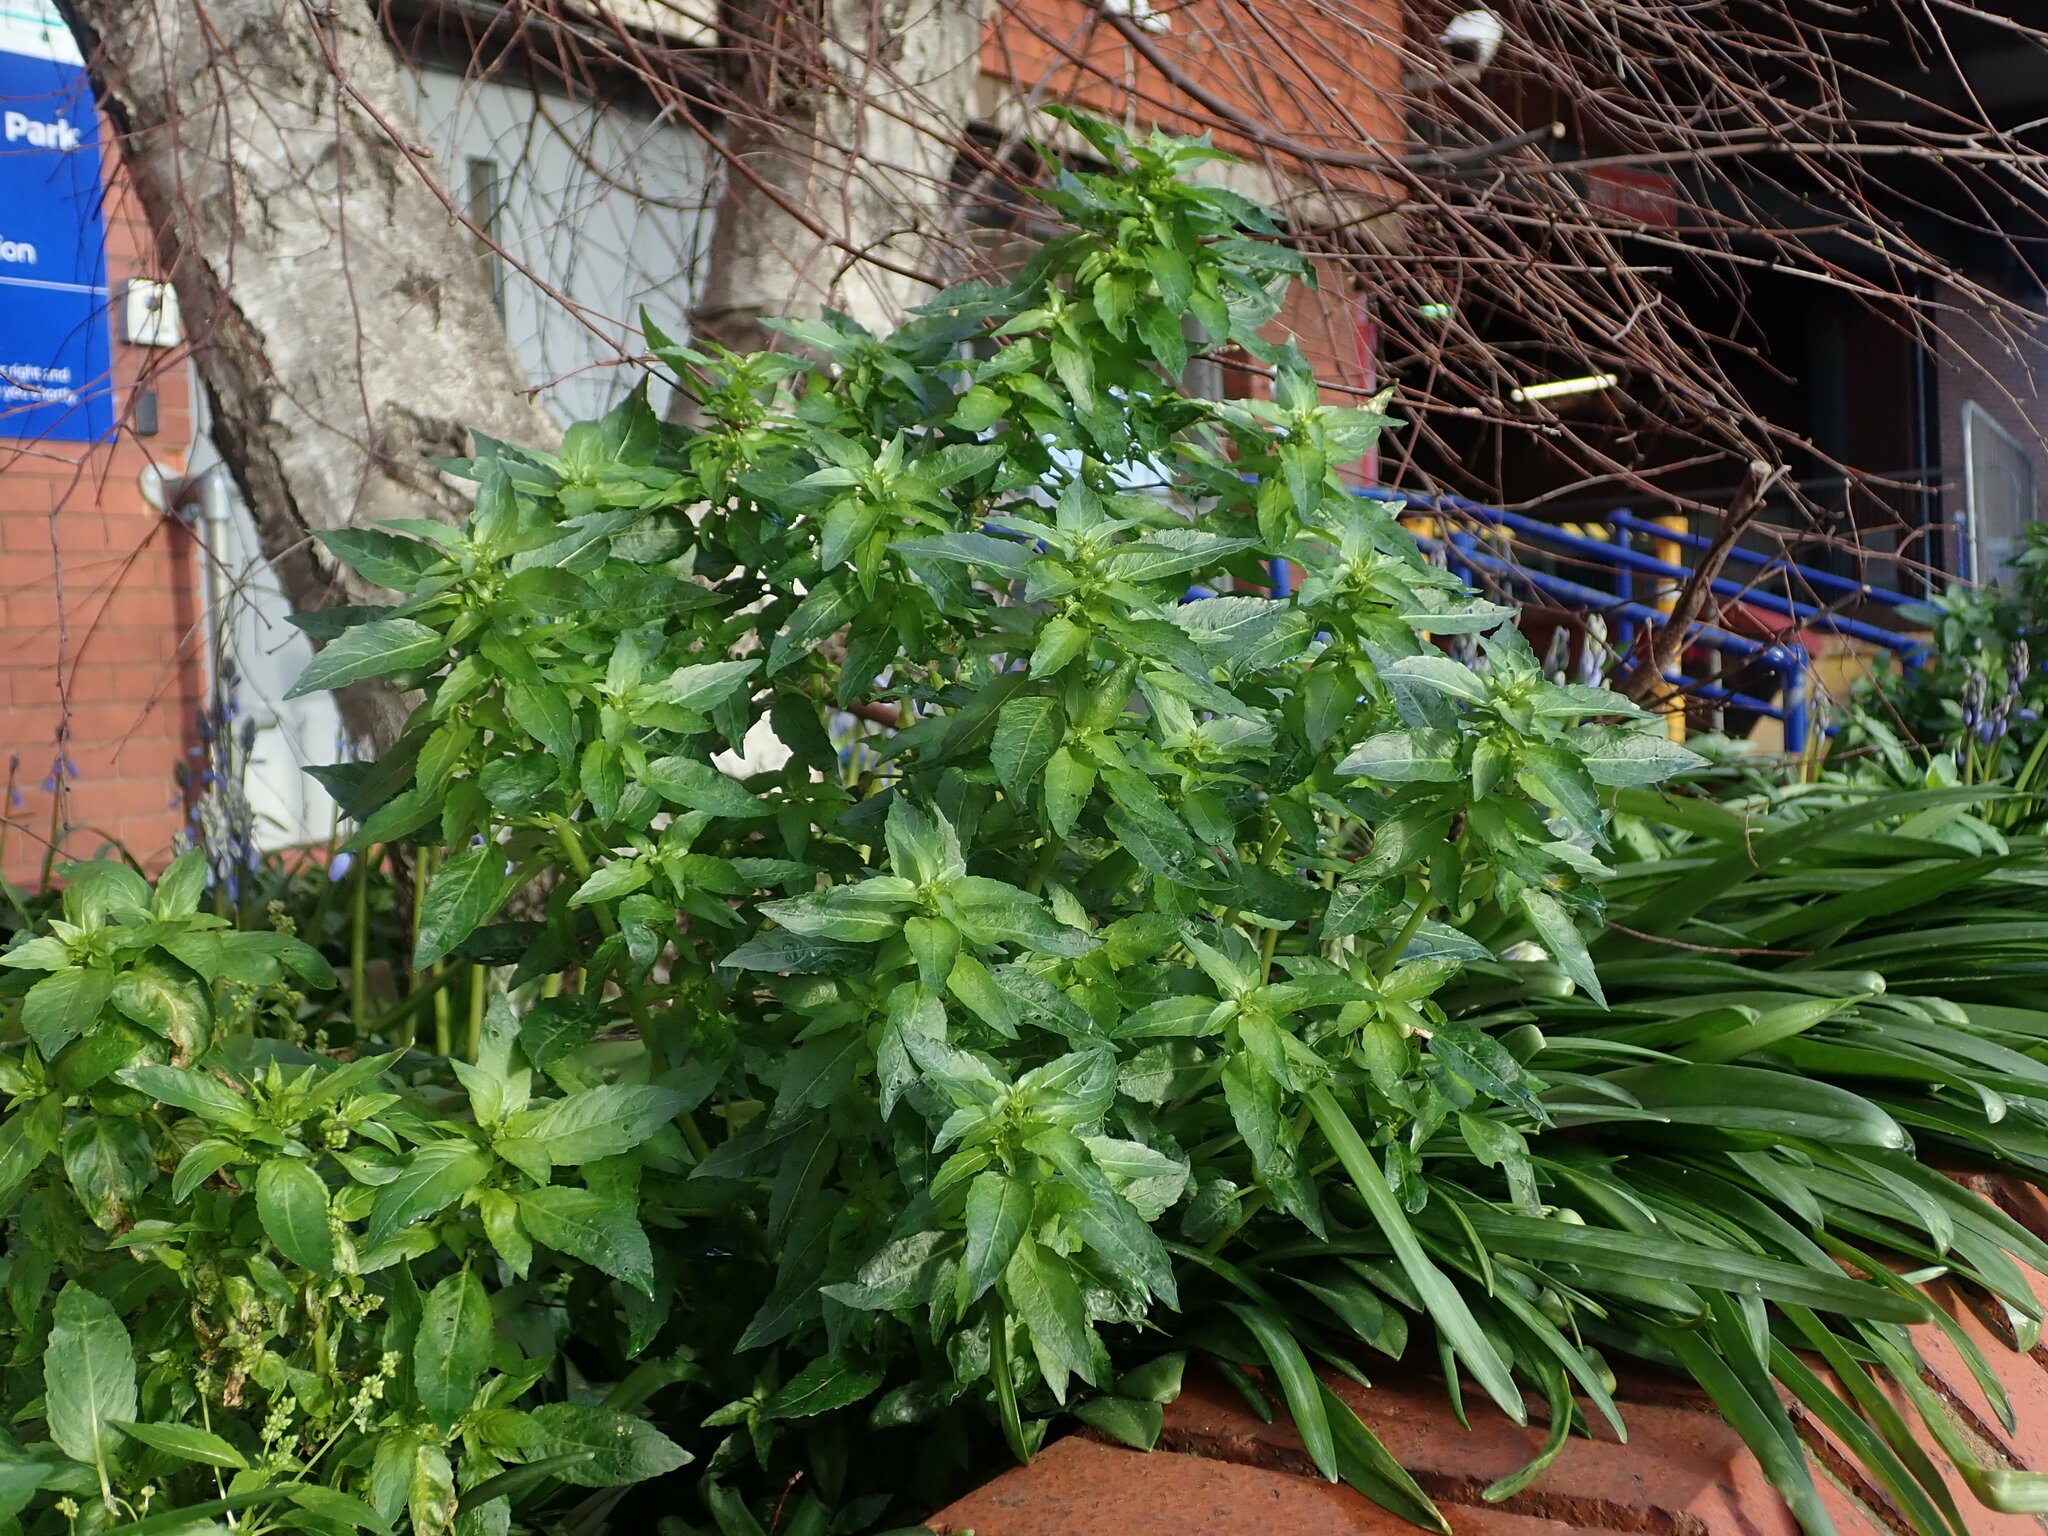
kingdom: Plantae
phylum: Tracheophyta
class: Magnoliopsida
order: Malpighiales
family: Euphorbiaceae
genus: Mercurialis
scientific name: Mercurialis annua
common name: Annual mercury
